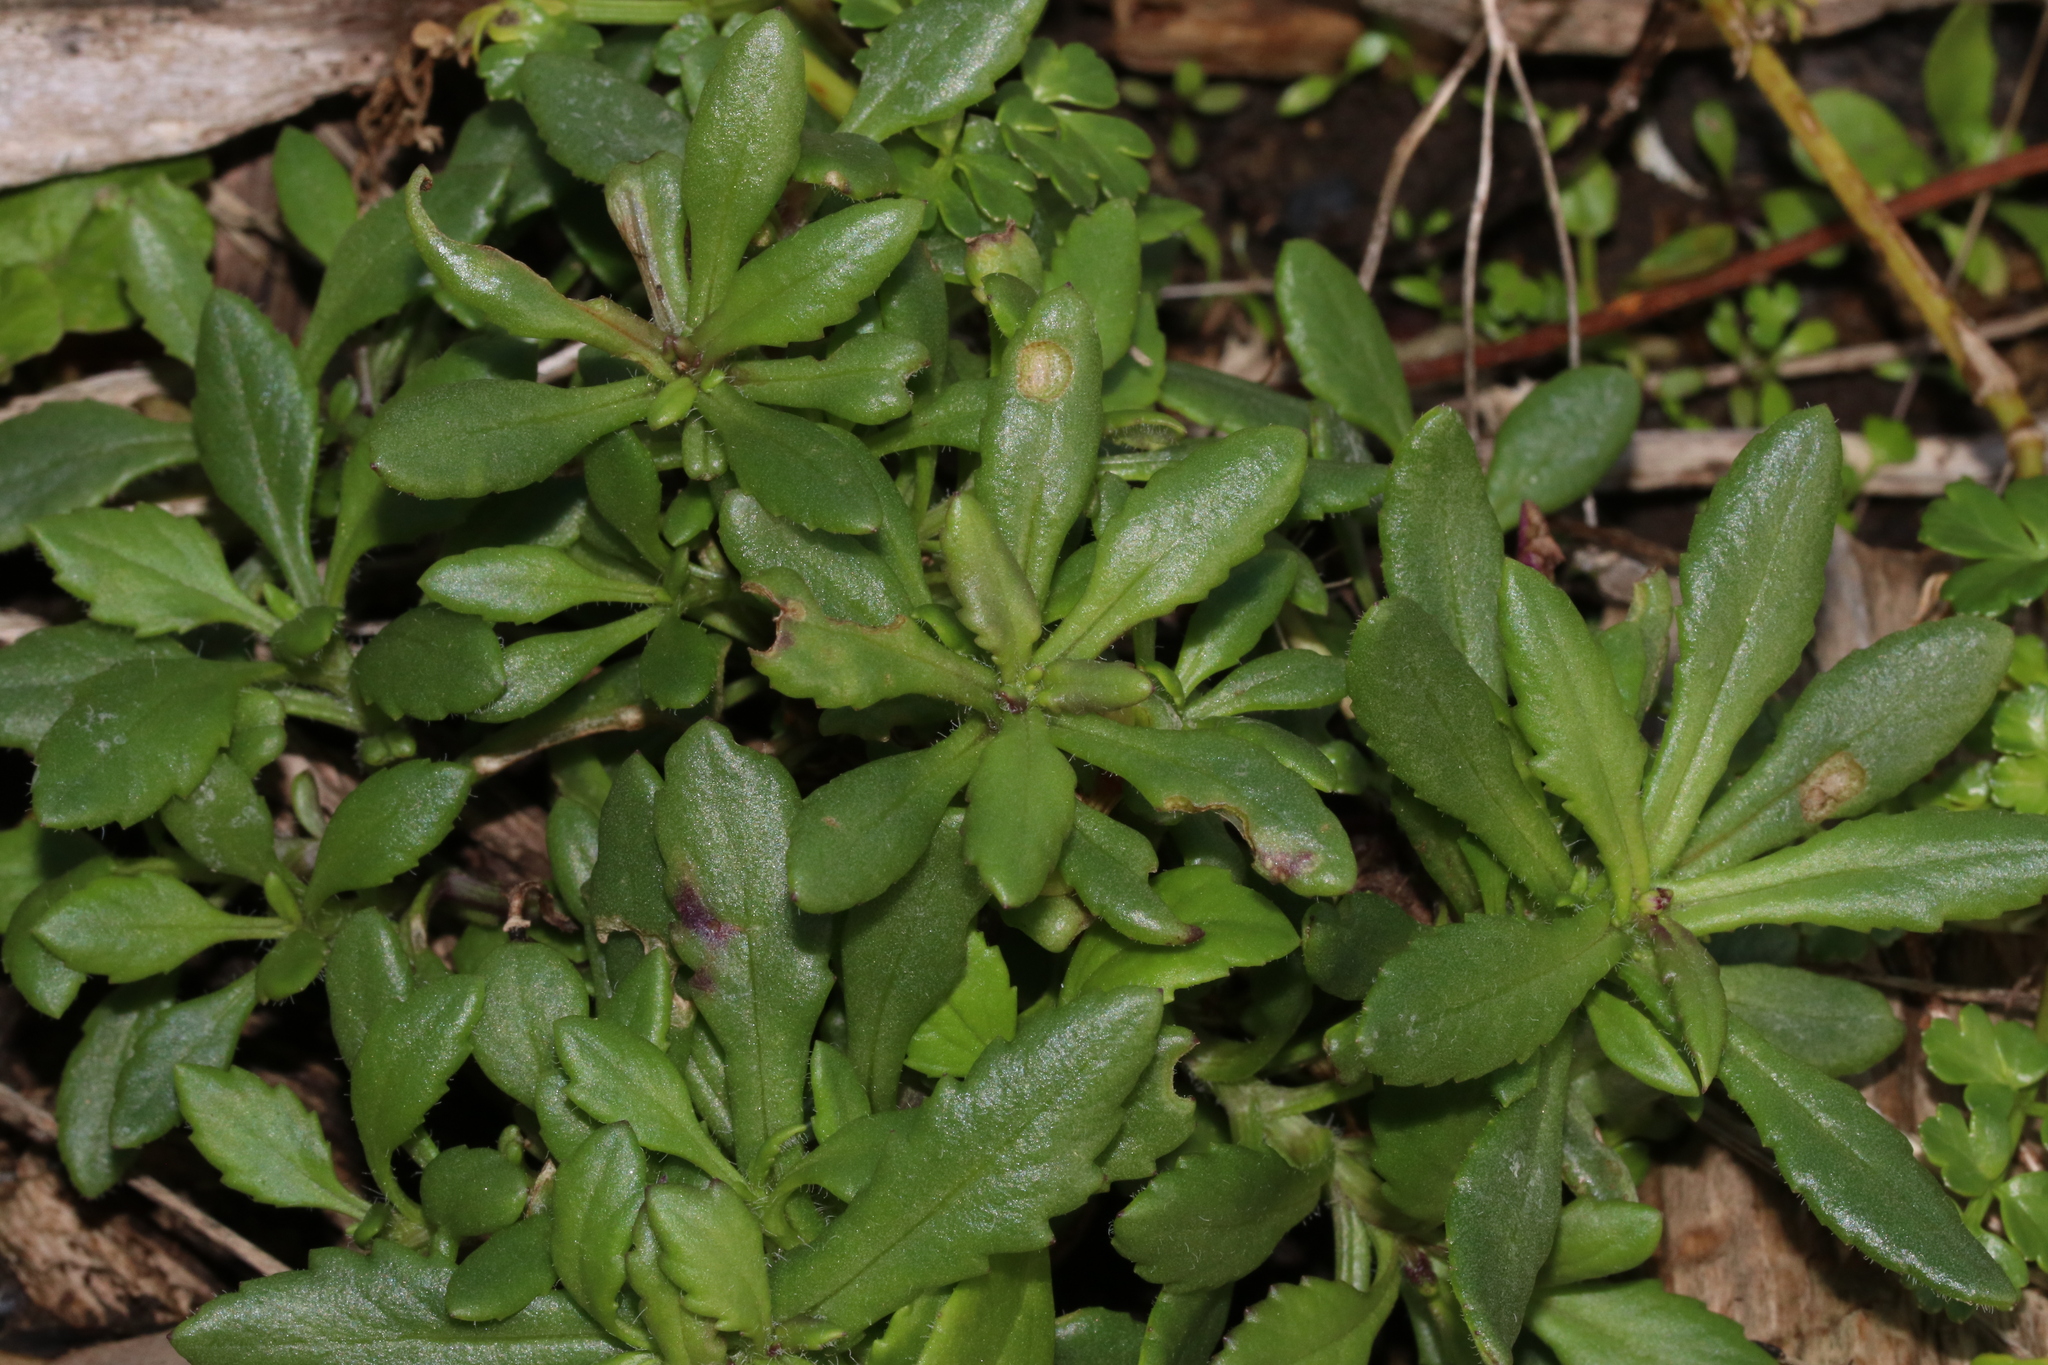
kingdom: Plantae
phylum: Tracheophyta
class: Magnoliopsida
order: Asterales
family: Asteraceae
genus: Senecio
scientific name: Senecio lautus
